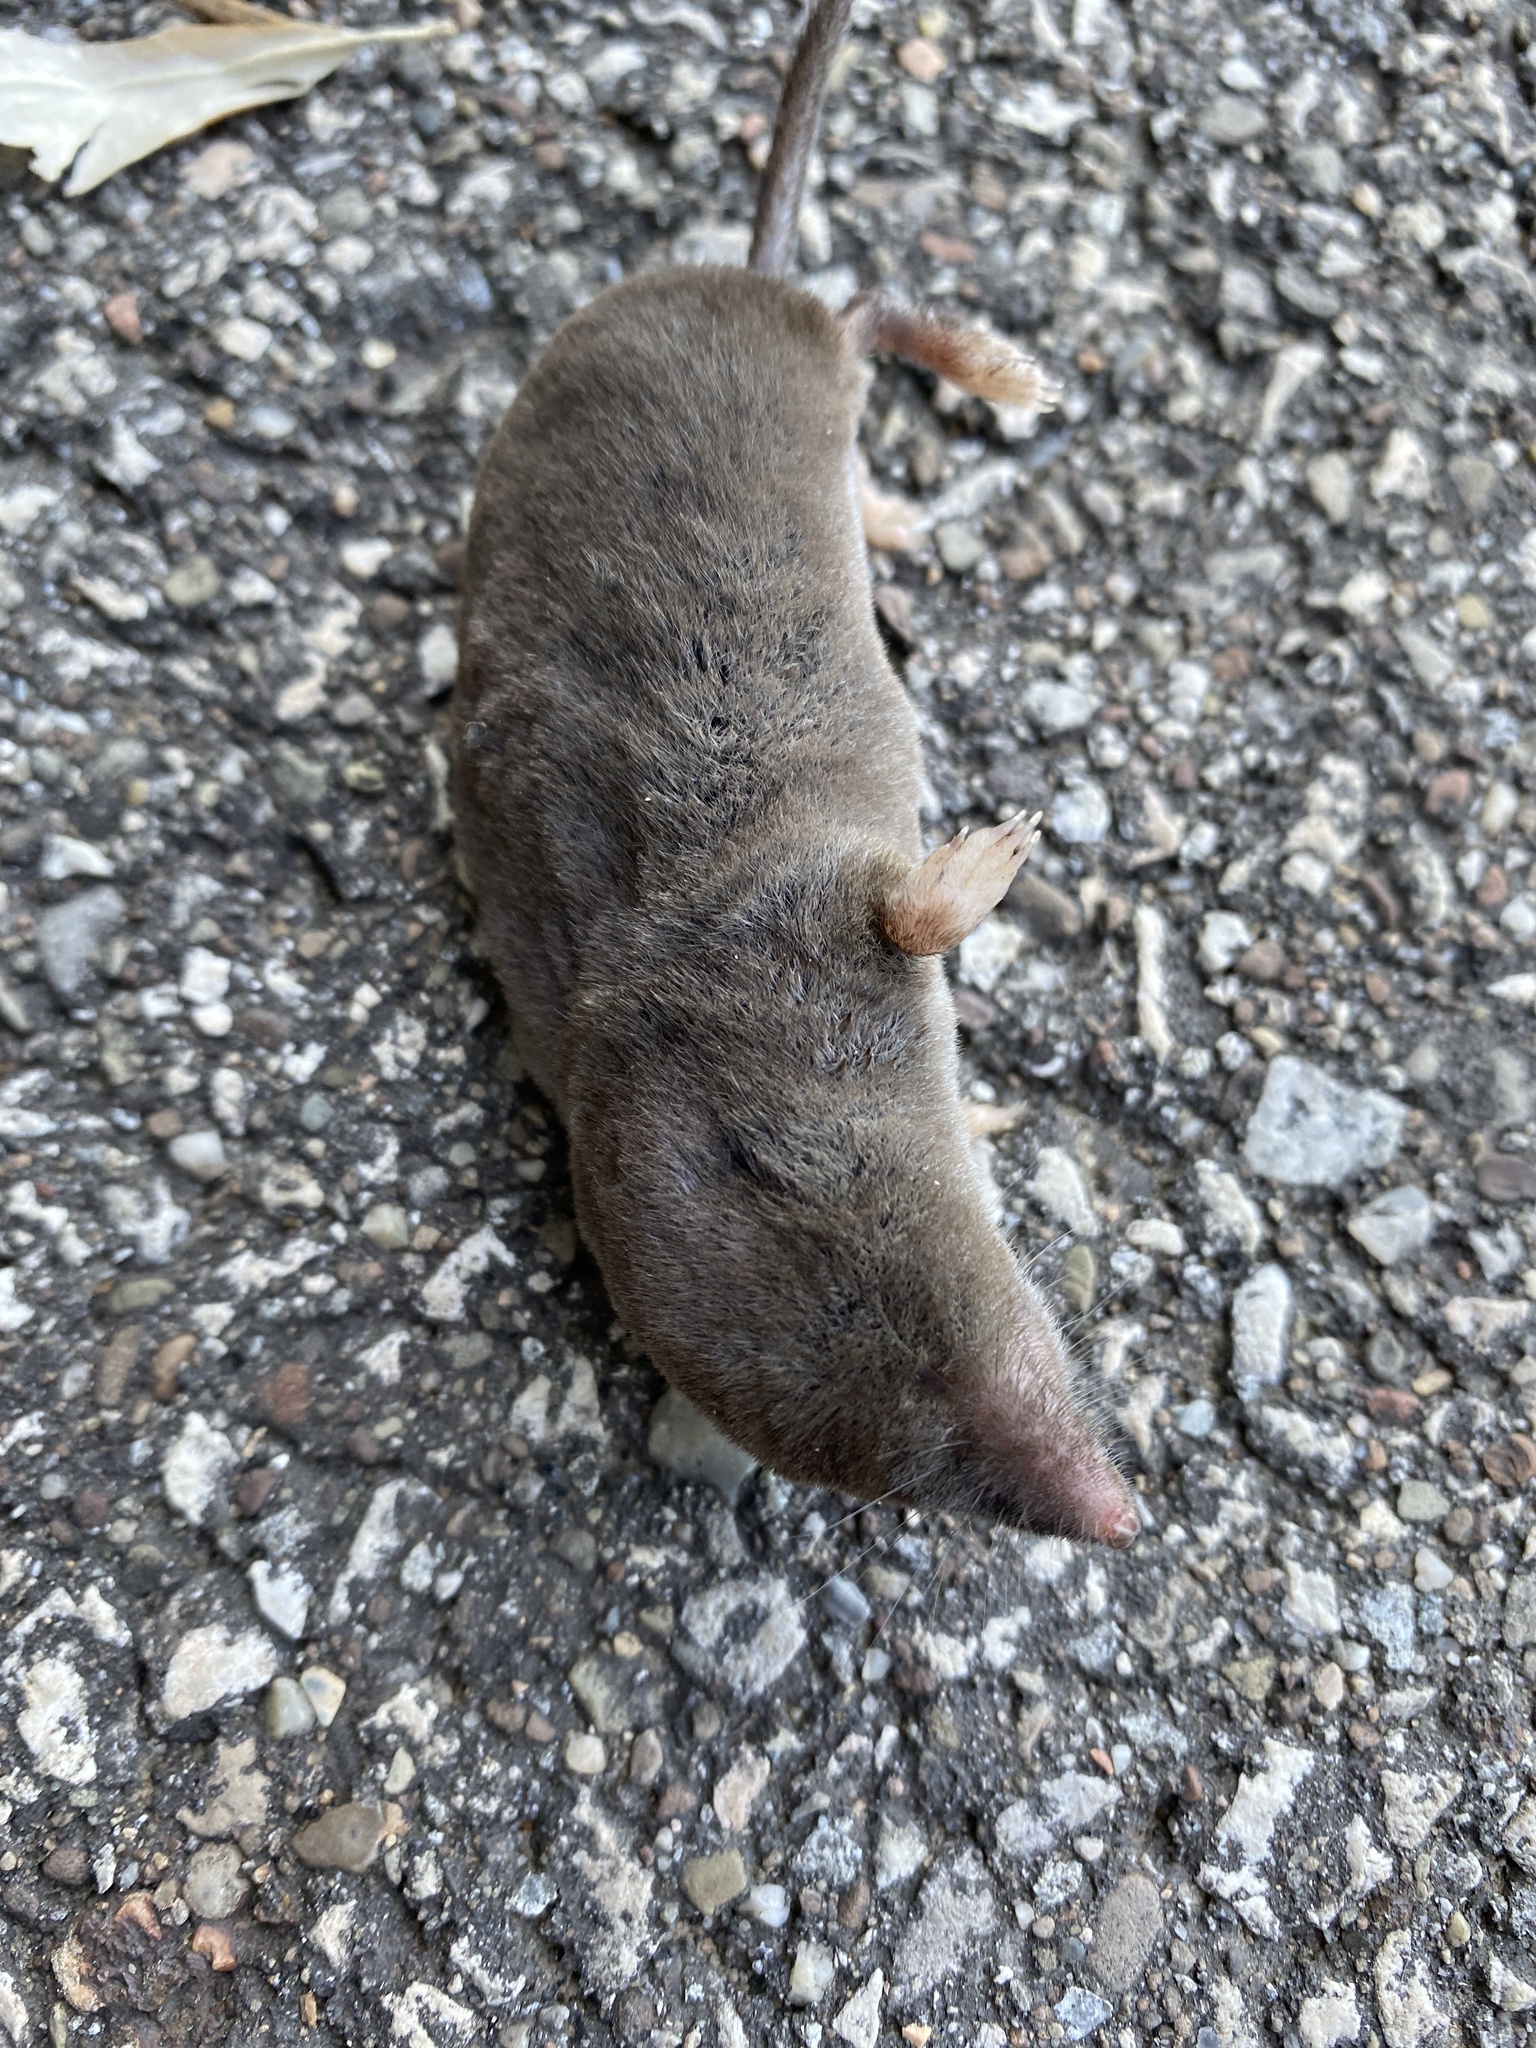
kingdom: Animalia
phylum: Chordata
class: Mammalia
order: Soricomorpha
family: Soricidae
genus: Blarina
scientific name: Blarina brevicauda
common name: Northern short-tailed shrew
